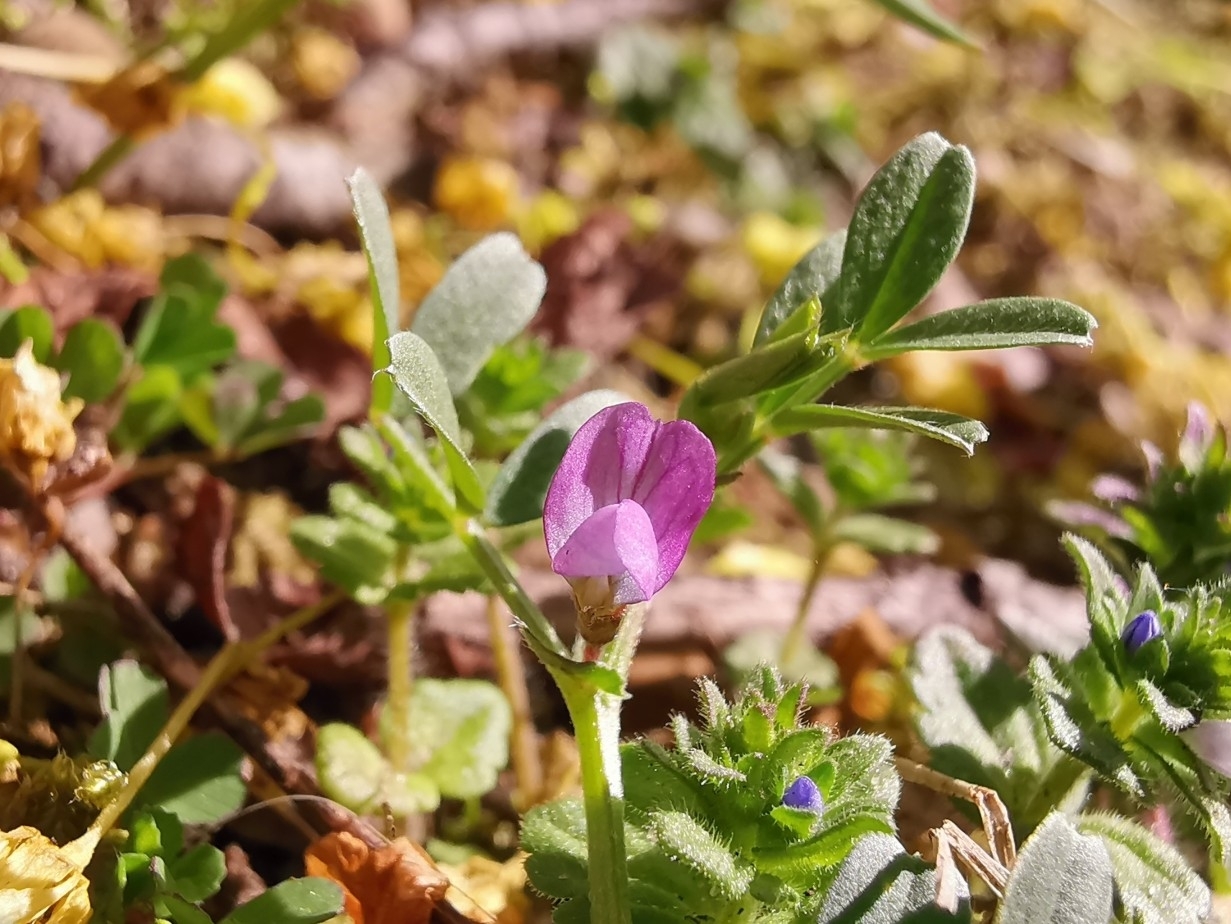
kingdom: Plantae
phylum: Tracheophyta
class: Magnoliopsida
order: Fabales
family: Fabaceae
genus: Vicia
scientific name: Vicia lathyroides
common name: Spring vetch
